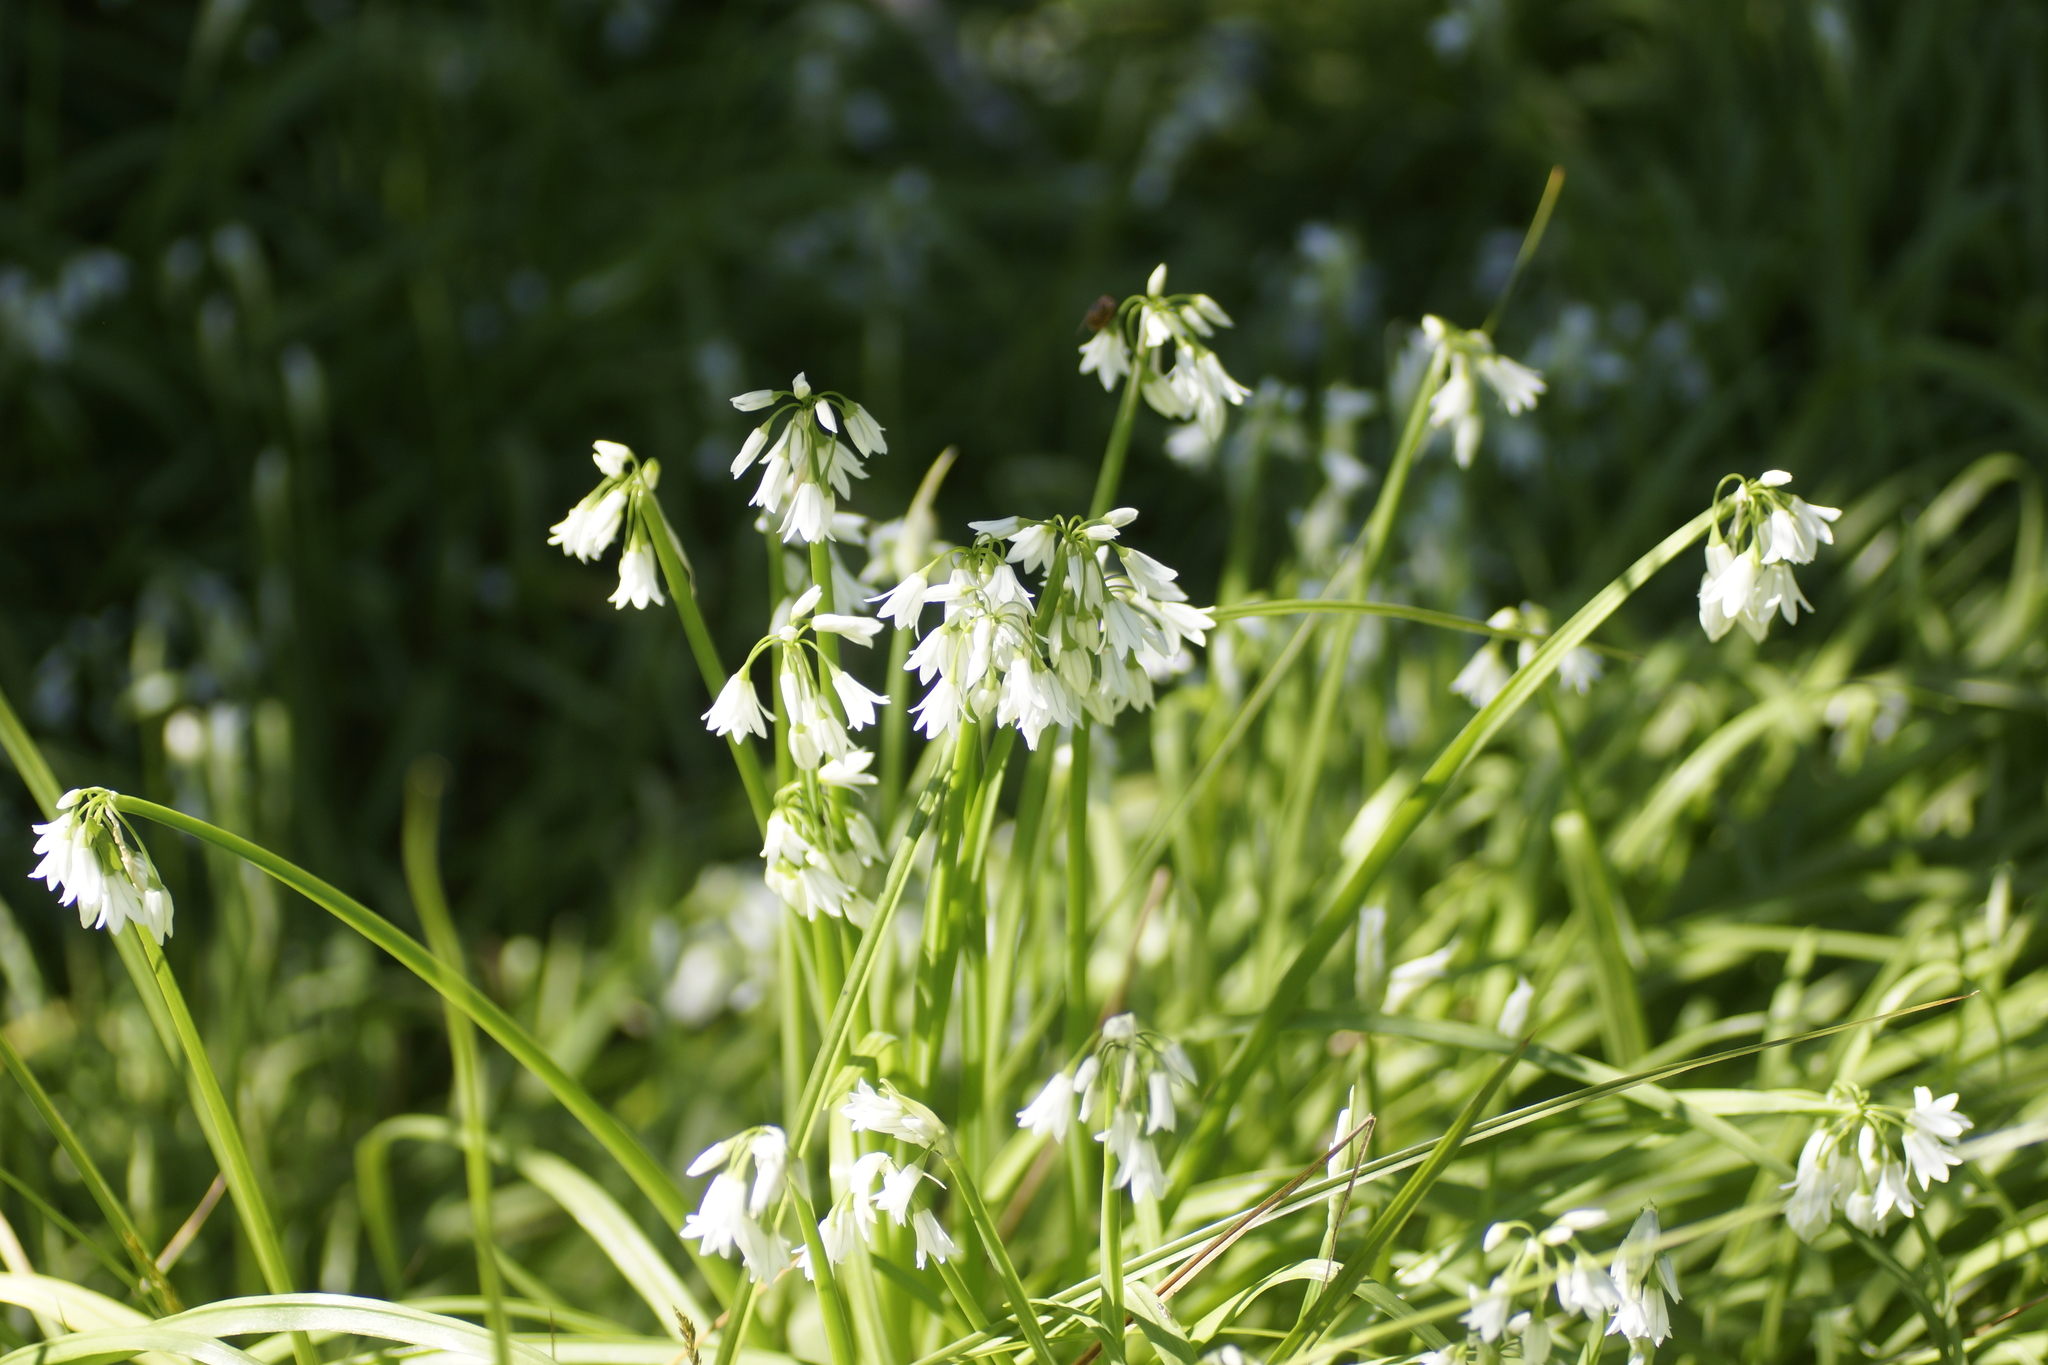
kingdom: Plantae
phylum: Tracheophyta
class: Liliopsida
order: Asparagales
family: Amaryllidaceae
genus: Allium
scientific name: Allium triquetrum
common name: Three-cornered garlic
